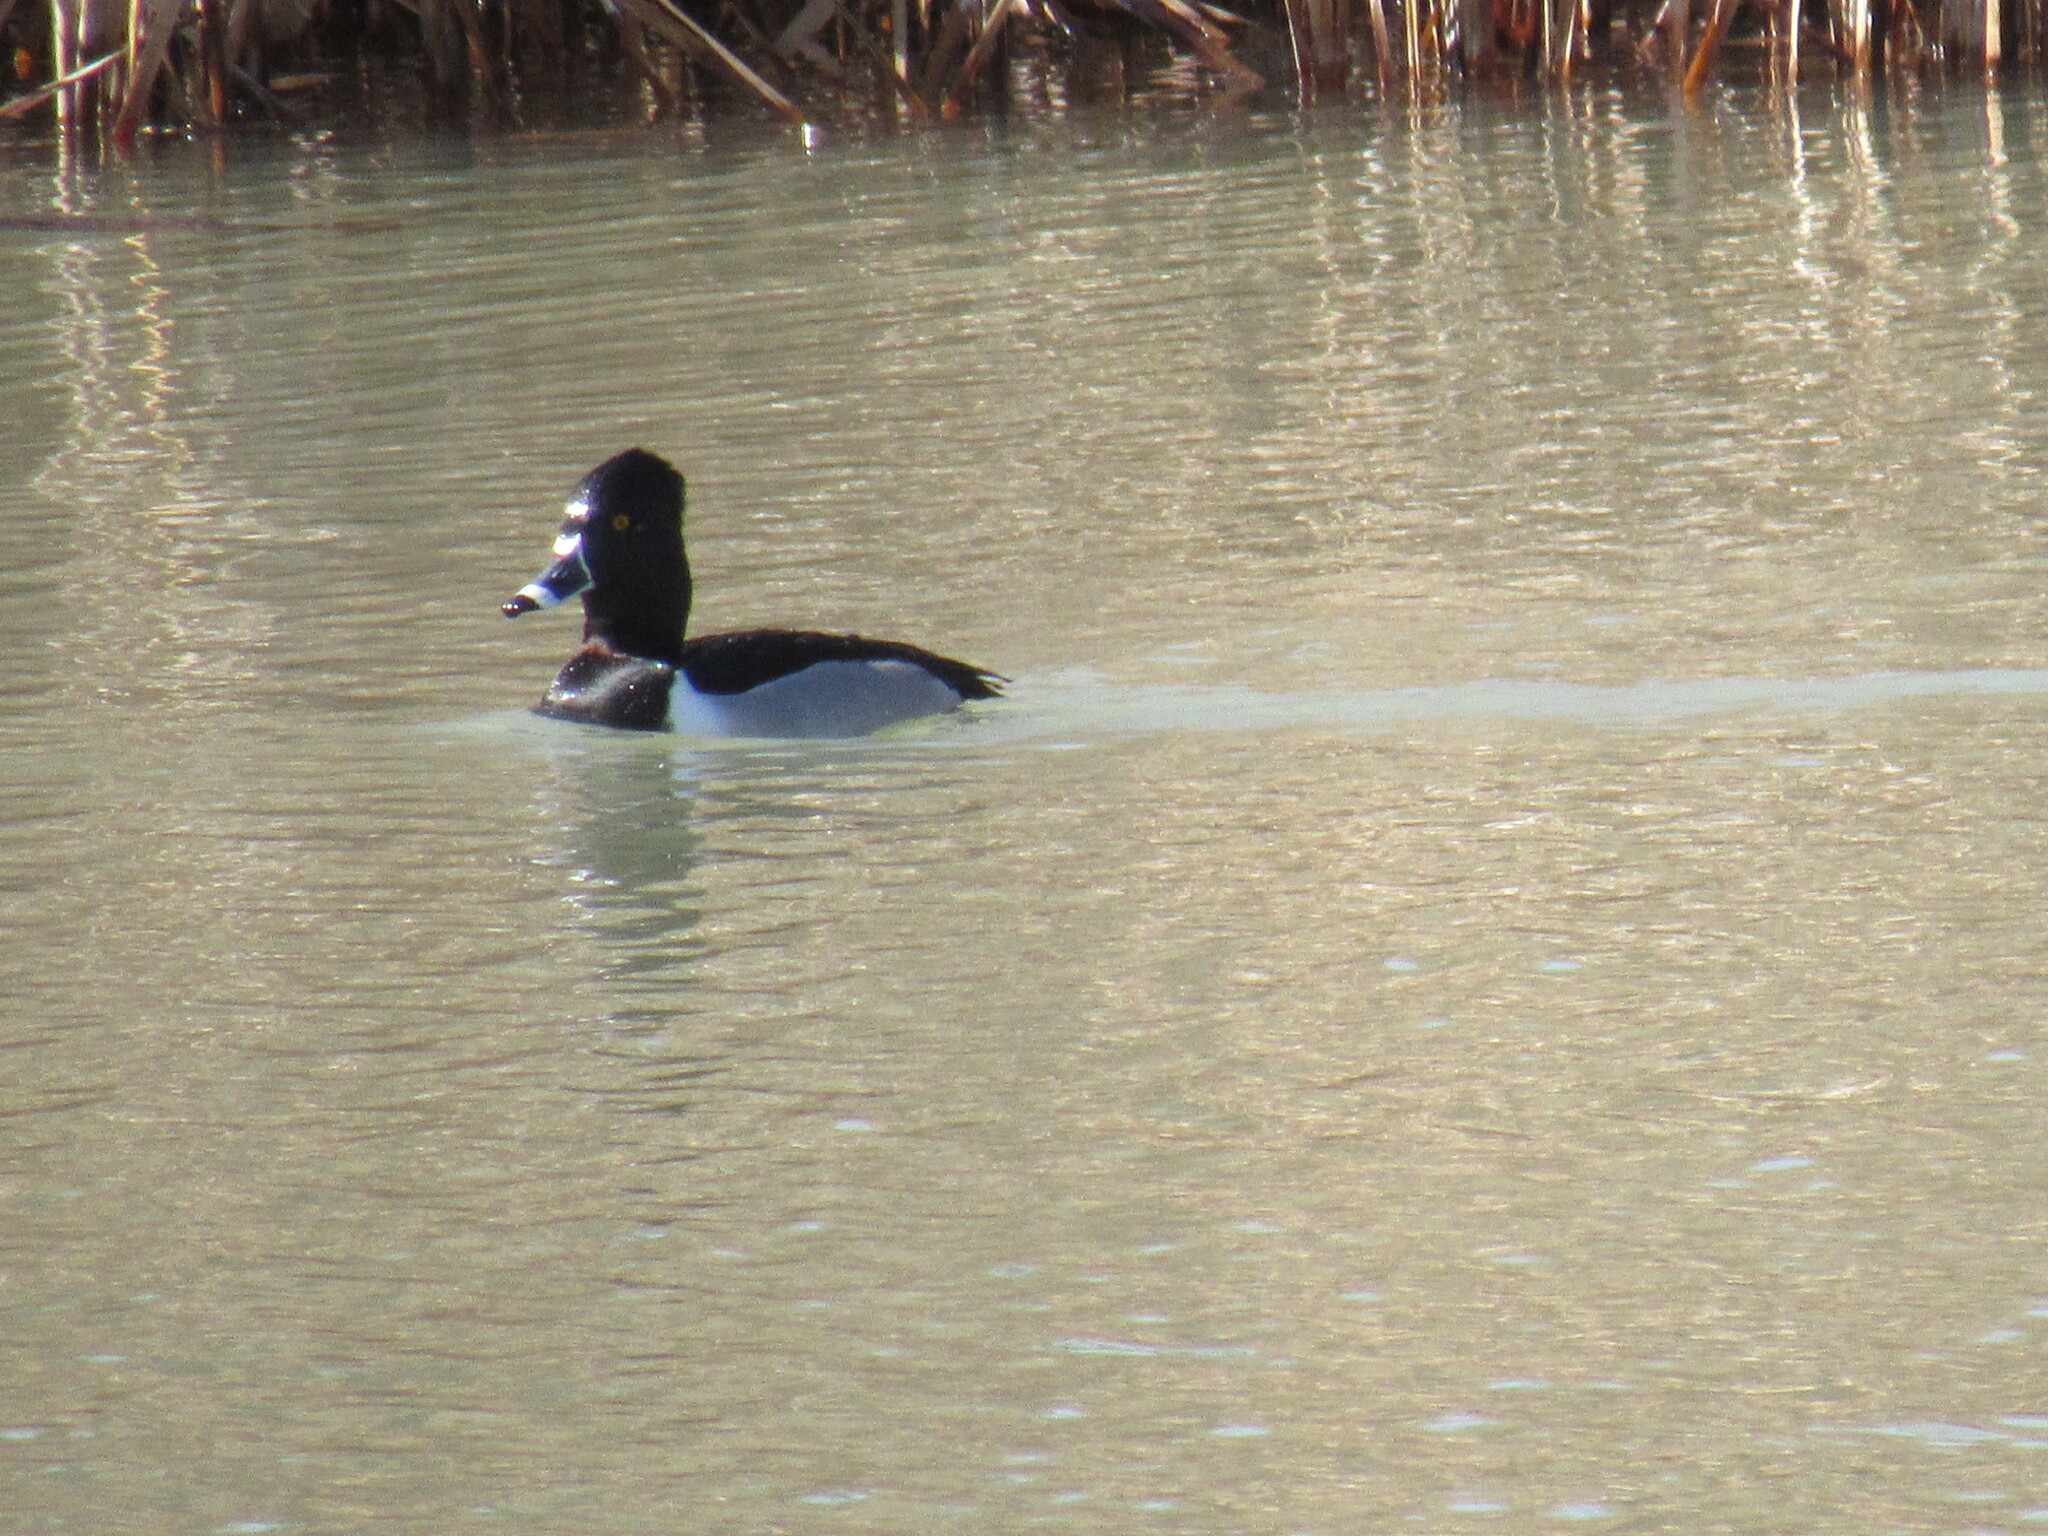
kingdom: Animalia
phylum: Chordata
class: Aves
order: Anseriformes
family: Anatidae
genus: Aythya
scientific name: Aythya collaris
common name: Ring-necked duck
